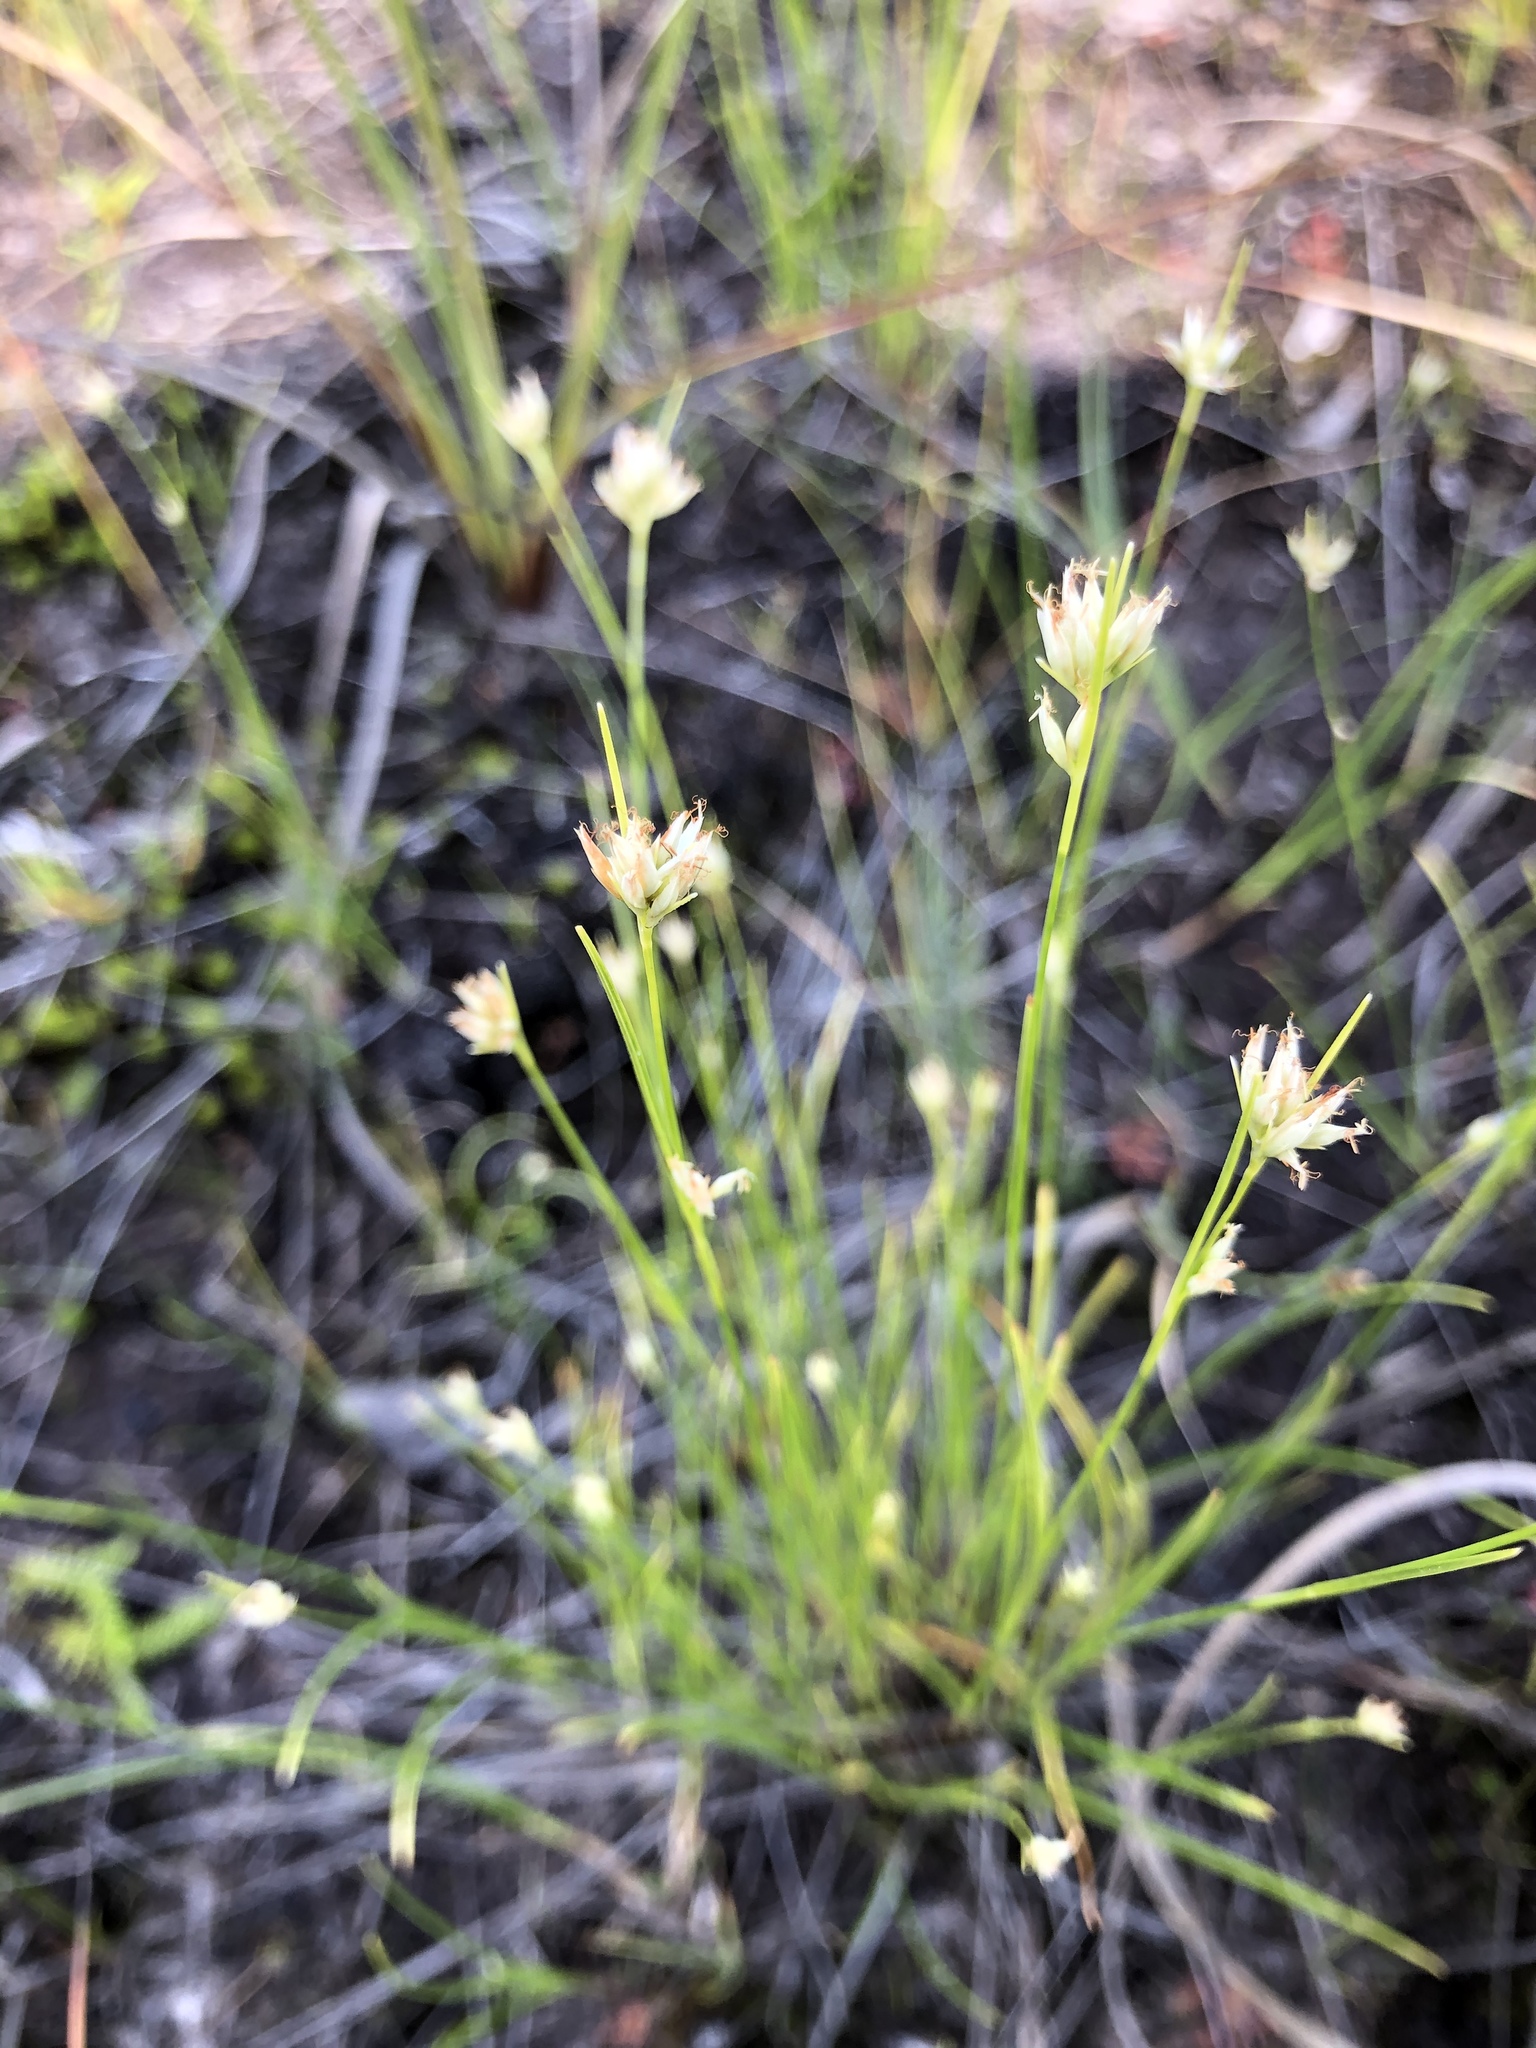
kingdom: Plantae
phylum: Tracheophyta
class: Liliopsida
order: Poales
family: Cyperaceae
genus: Rhynchospora
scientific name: Rhynchospora alba
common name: White beak-sedge
